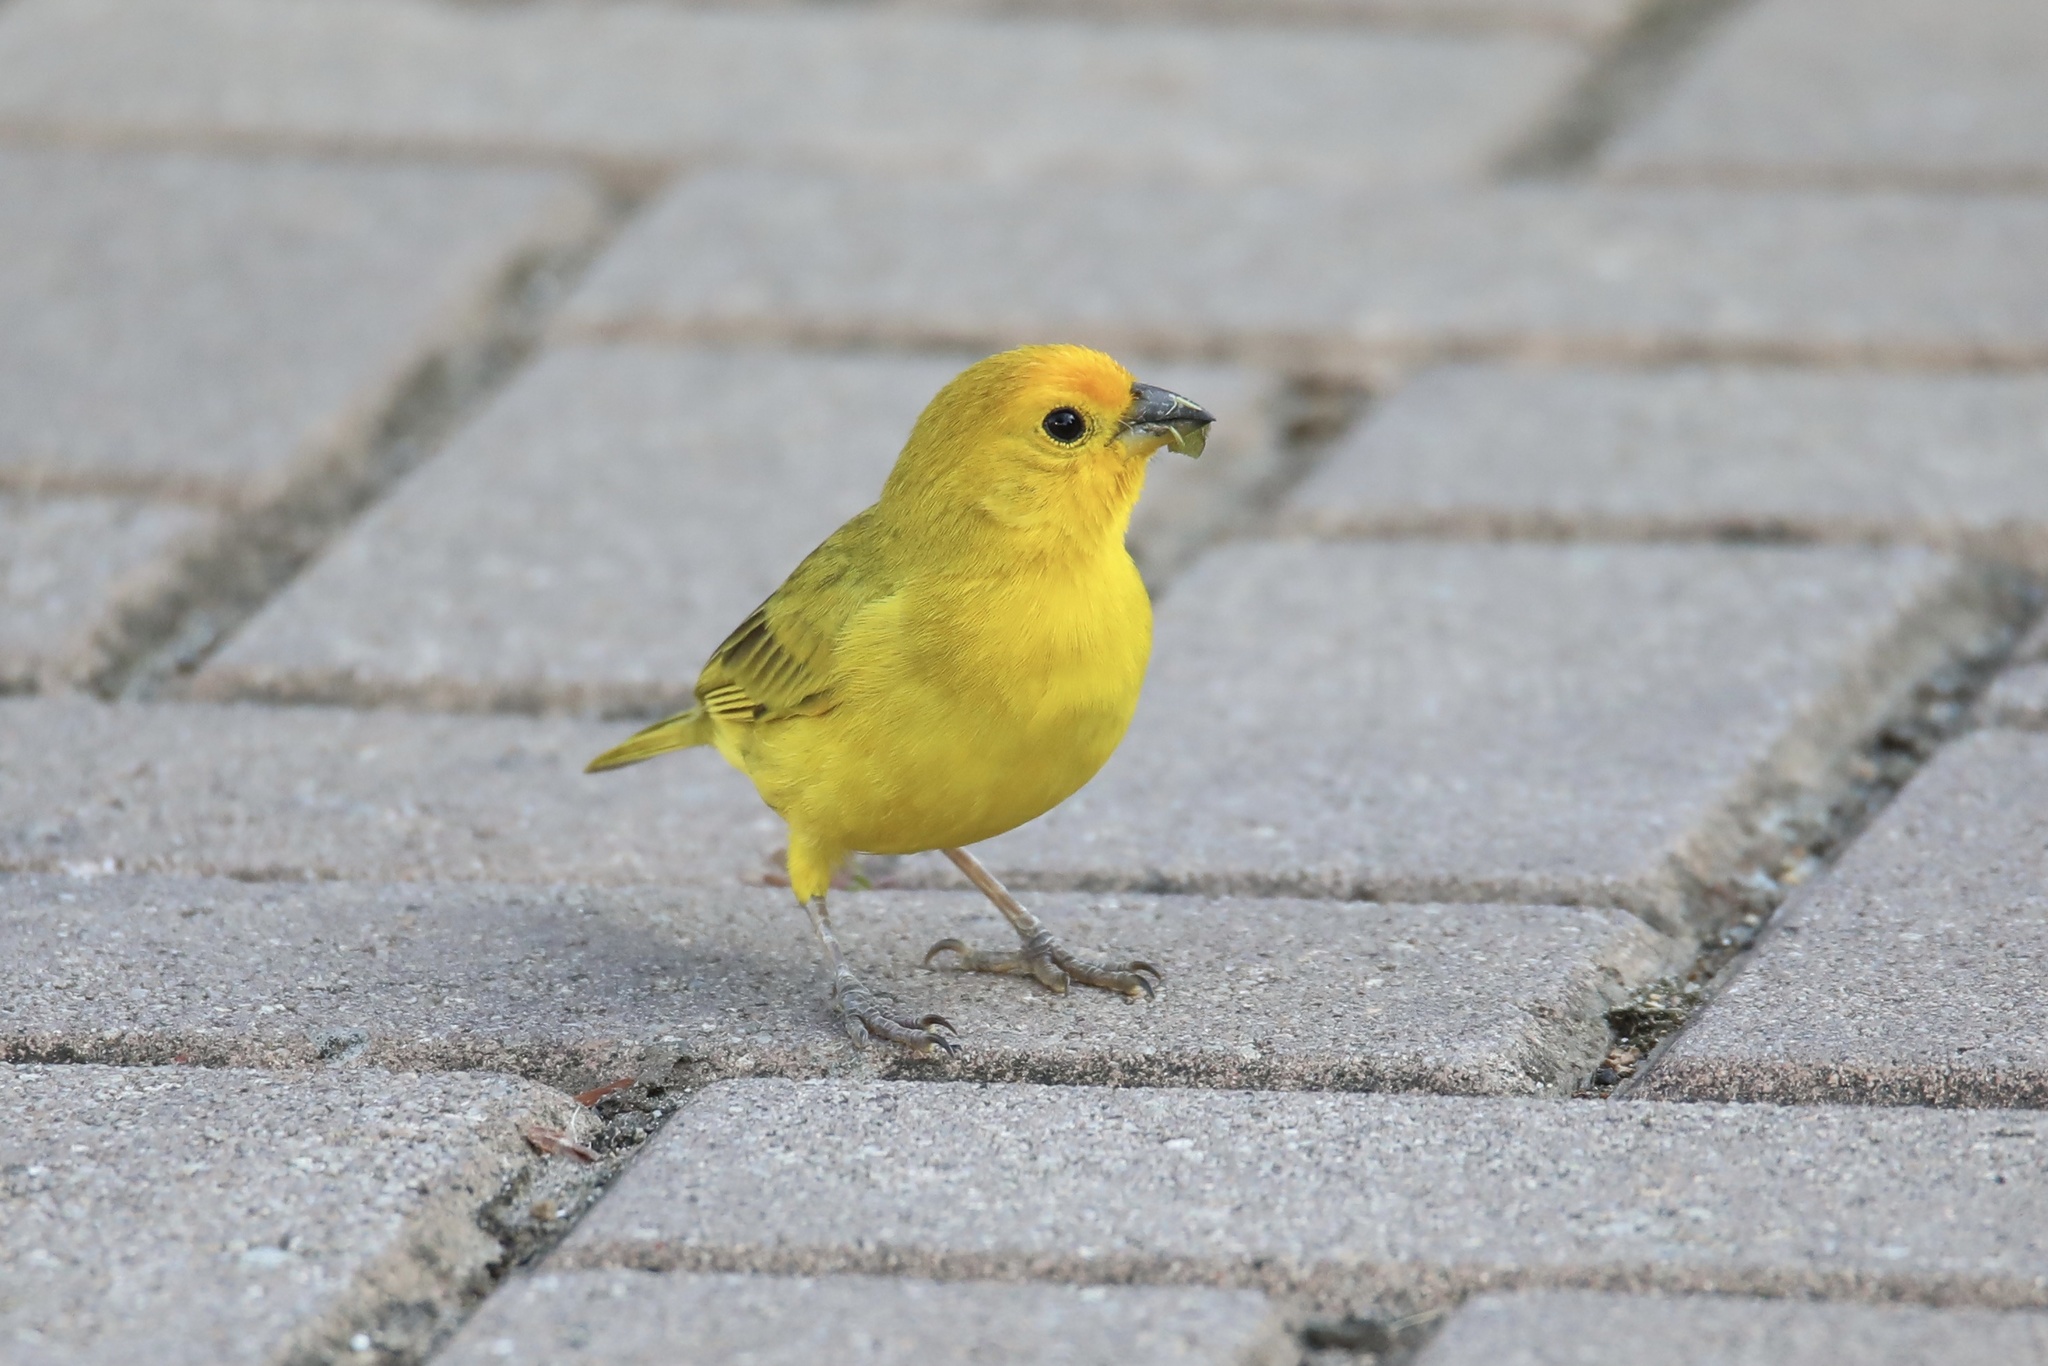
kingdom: Animalia
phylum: Chordata
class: Aves
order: Passeriformes
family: Thraupidae
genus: Sicalis
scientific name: Sicalis flaveola
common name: Saffron finch
